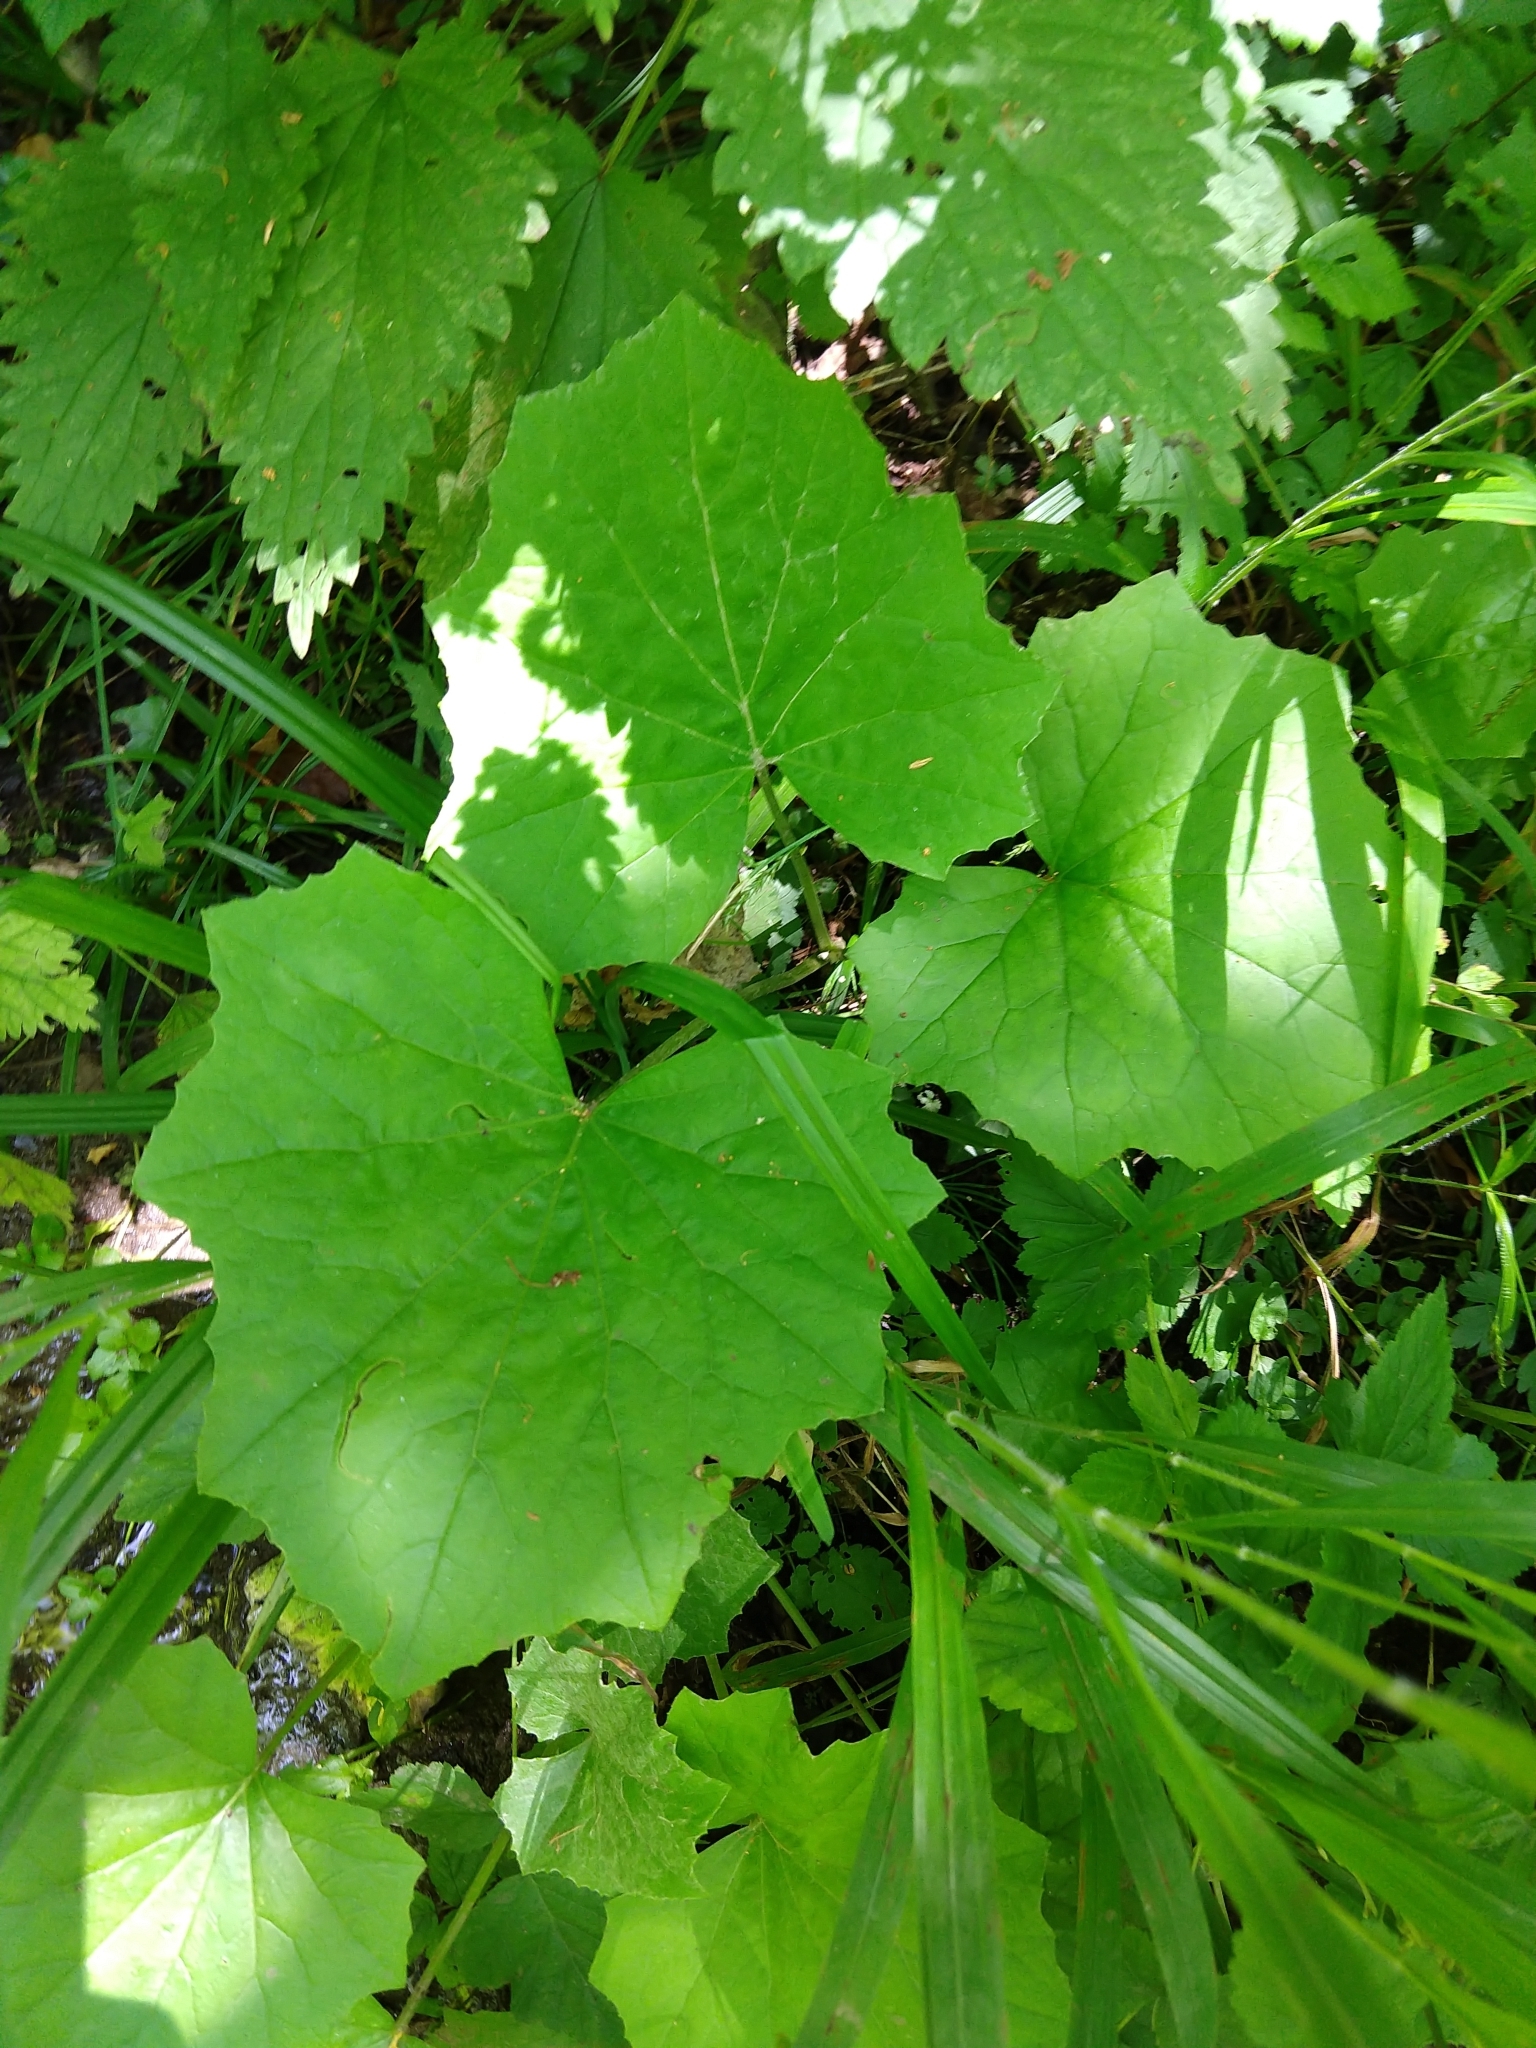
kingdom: Plantae
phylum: Tracheophyta
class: Magnoliopsida
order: Asterales
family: Asteraceae
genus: Tussilago
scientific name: Tussilago farfara
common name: Coltsfoot
